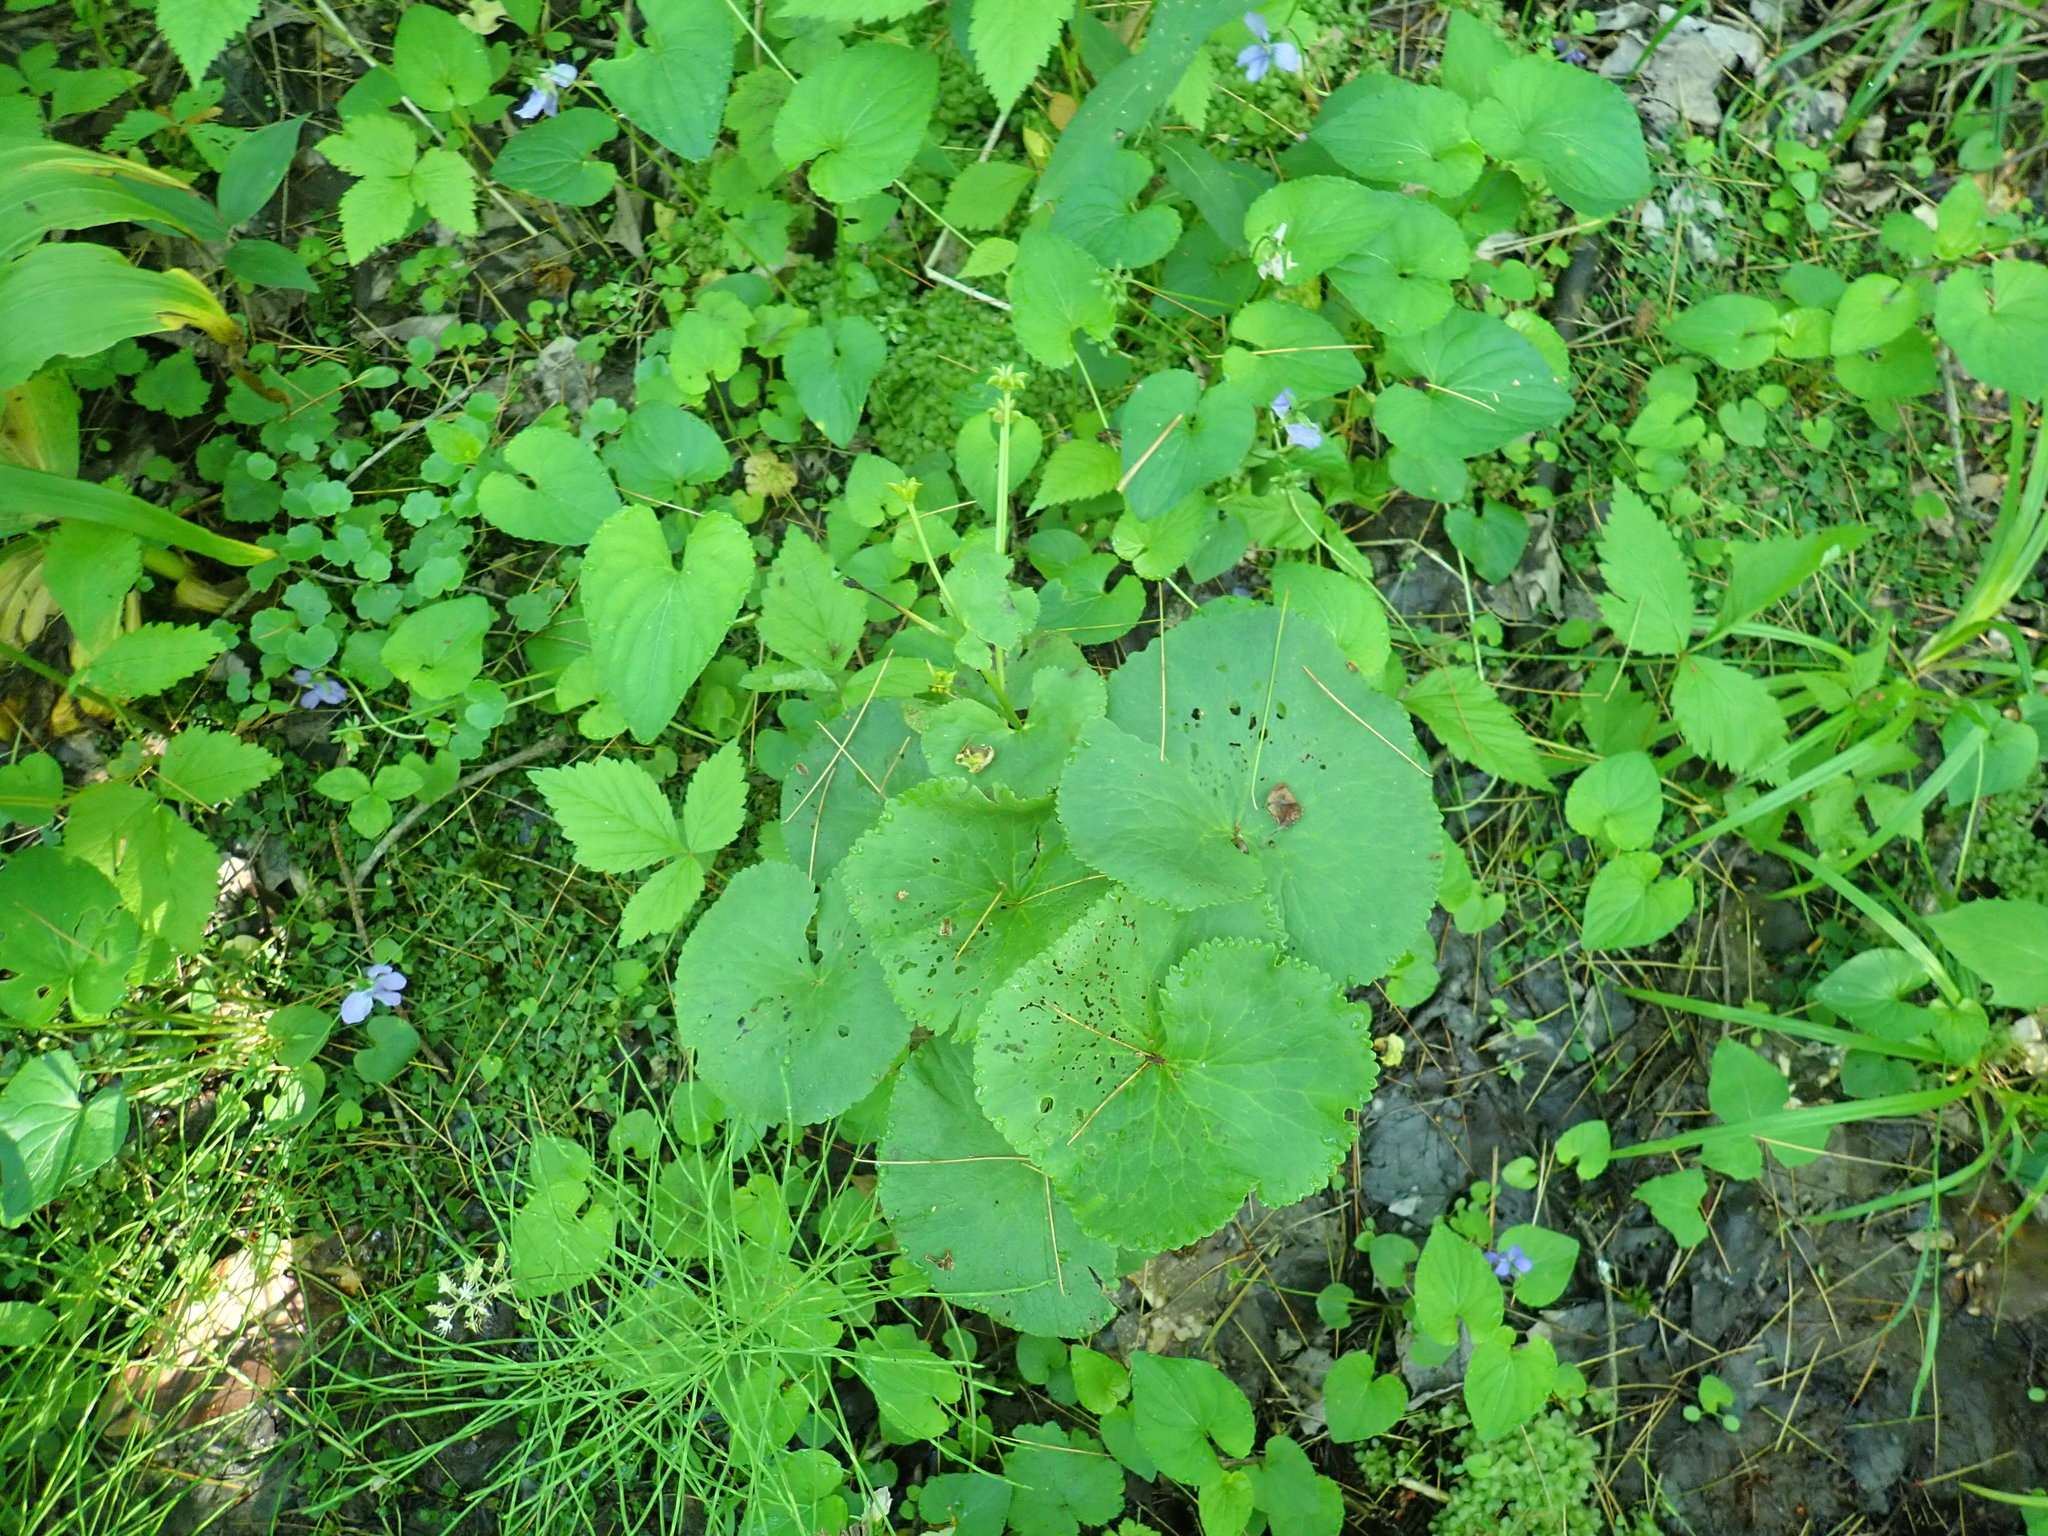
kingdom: Plantae
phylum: Tracheophyta
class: Magnoliopsida
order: Ranunculales
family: Ranunculaceae
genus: Caltha
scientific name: Caltha palustris
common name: Marsh marigold
